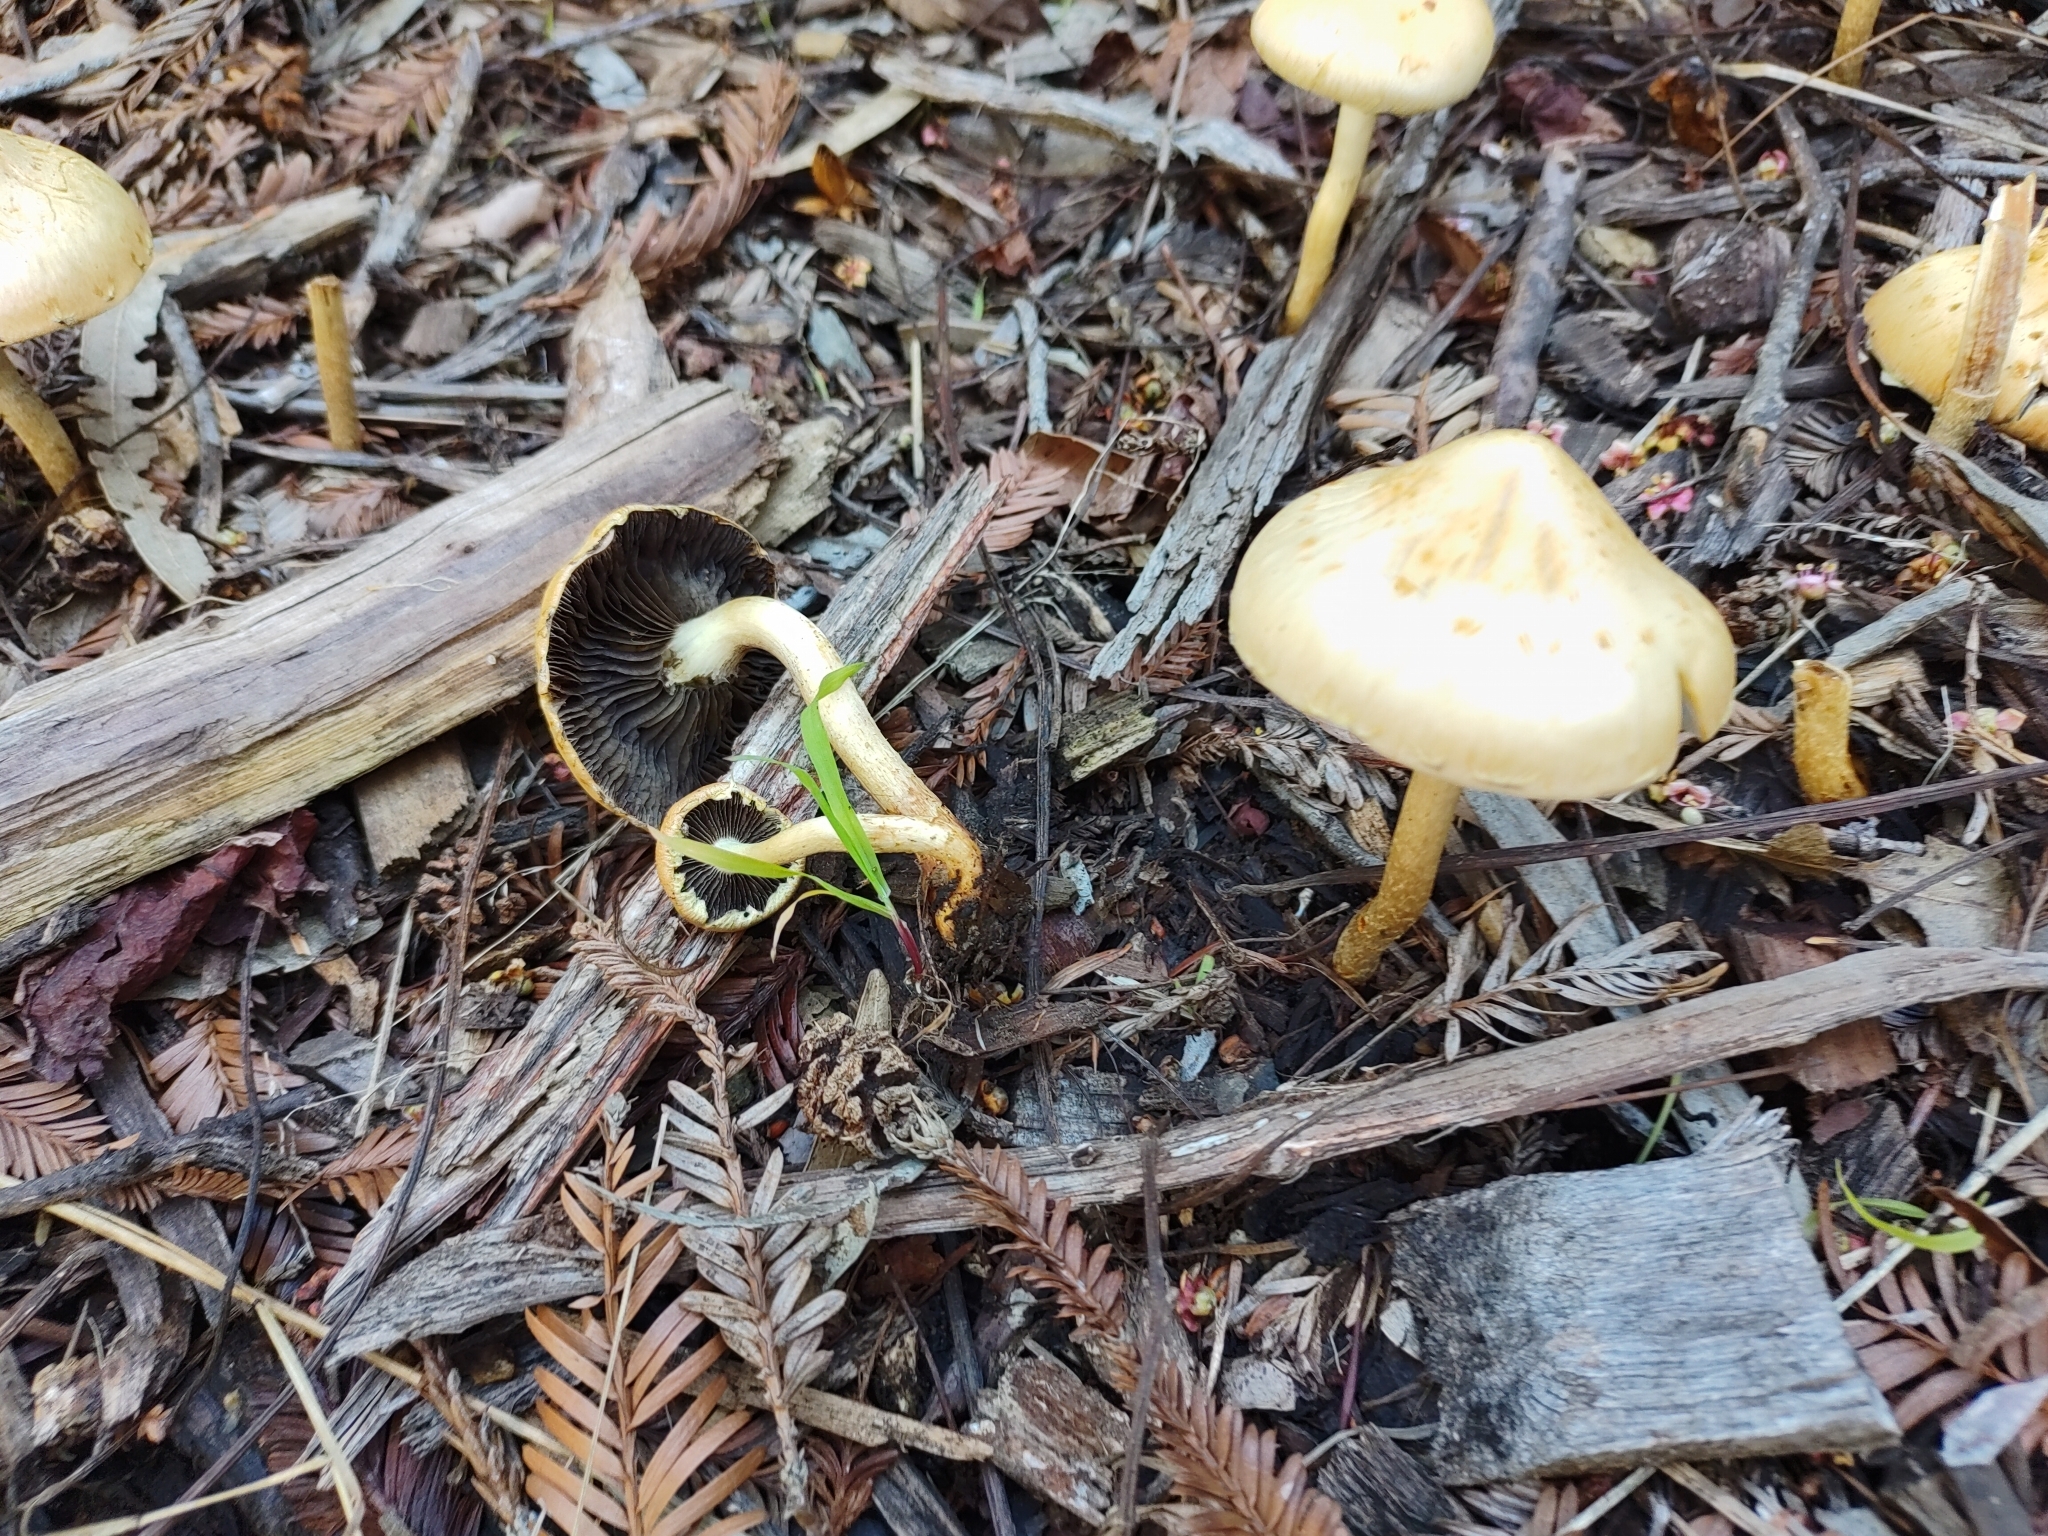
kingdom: Fungi
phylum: Basidiomycota
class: Agaricomycetes
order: Agaricales
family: Strophariaceae
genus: Leratiomyces
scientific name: Leratiomyces percevalii
